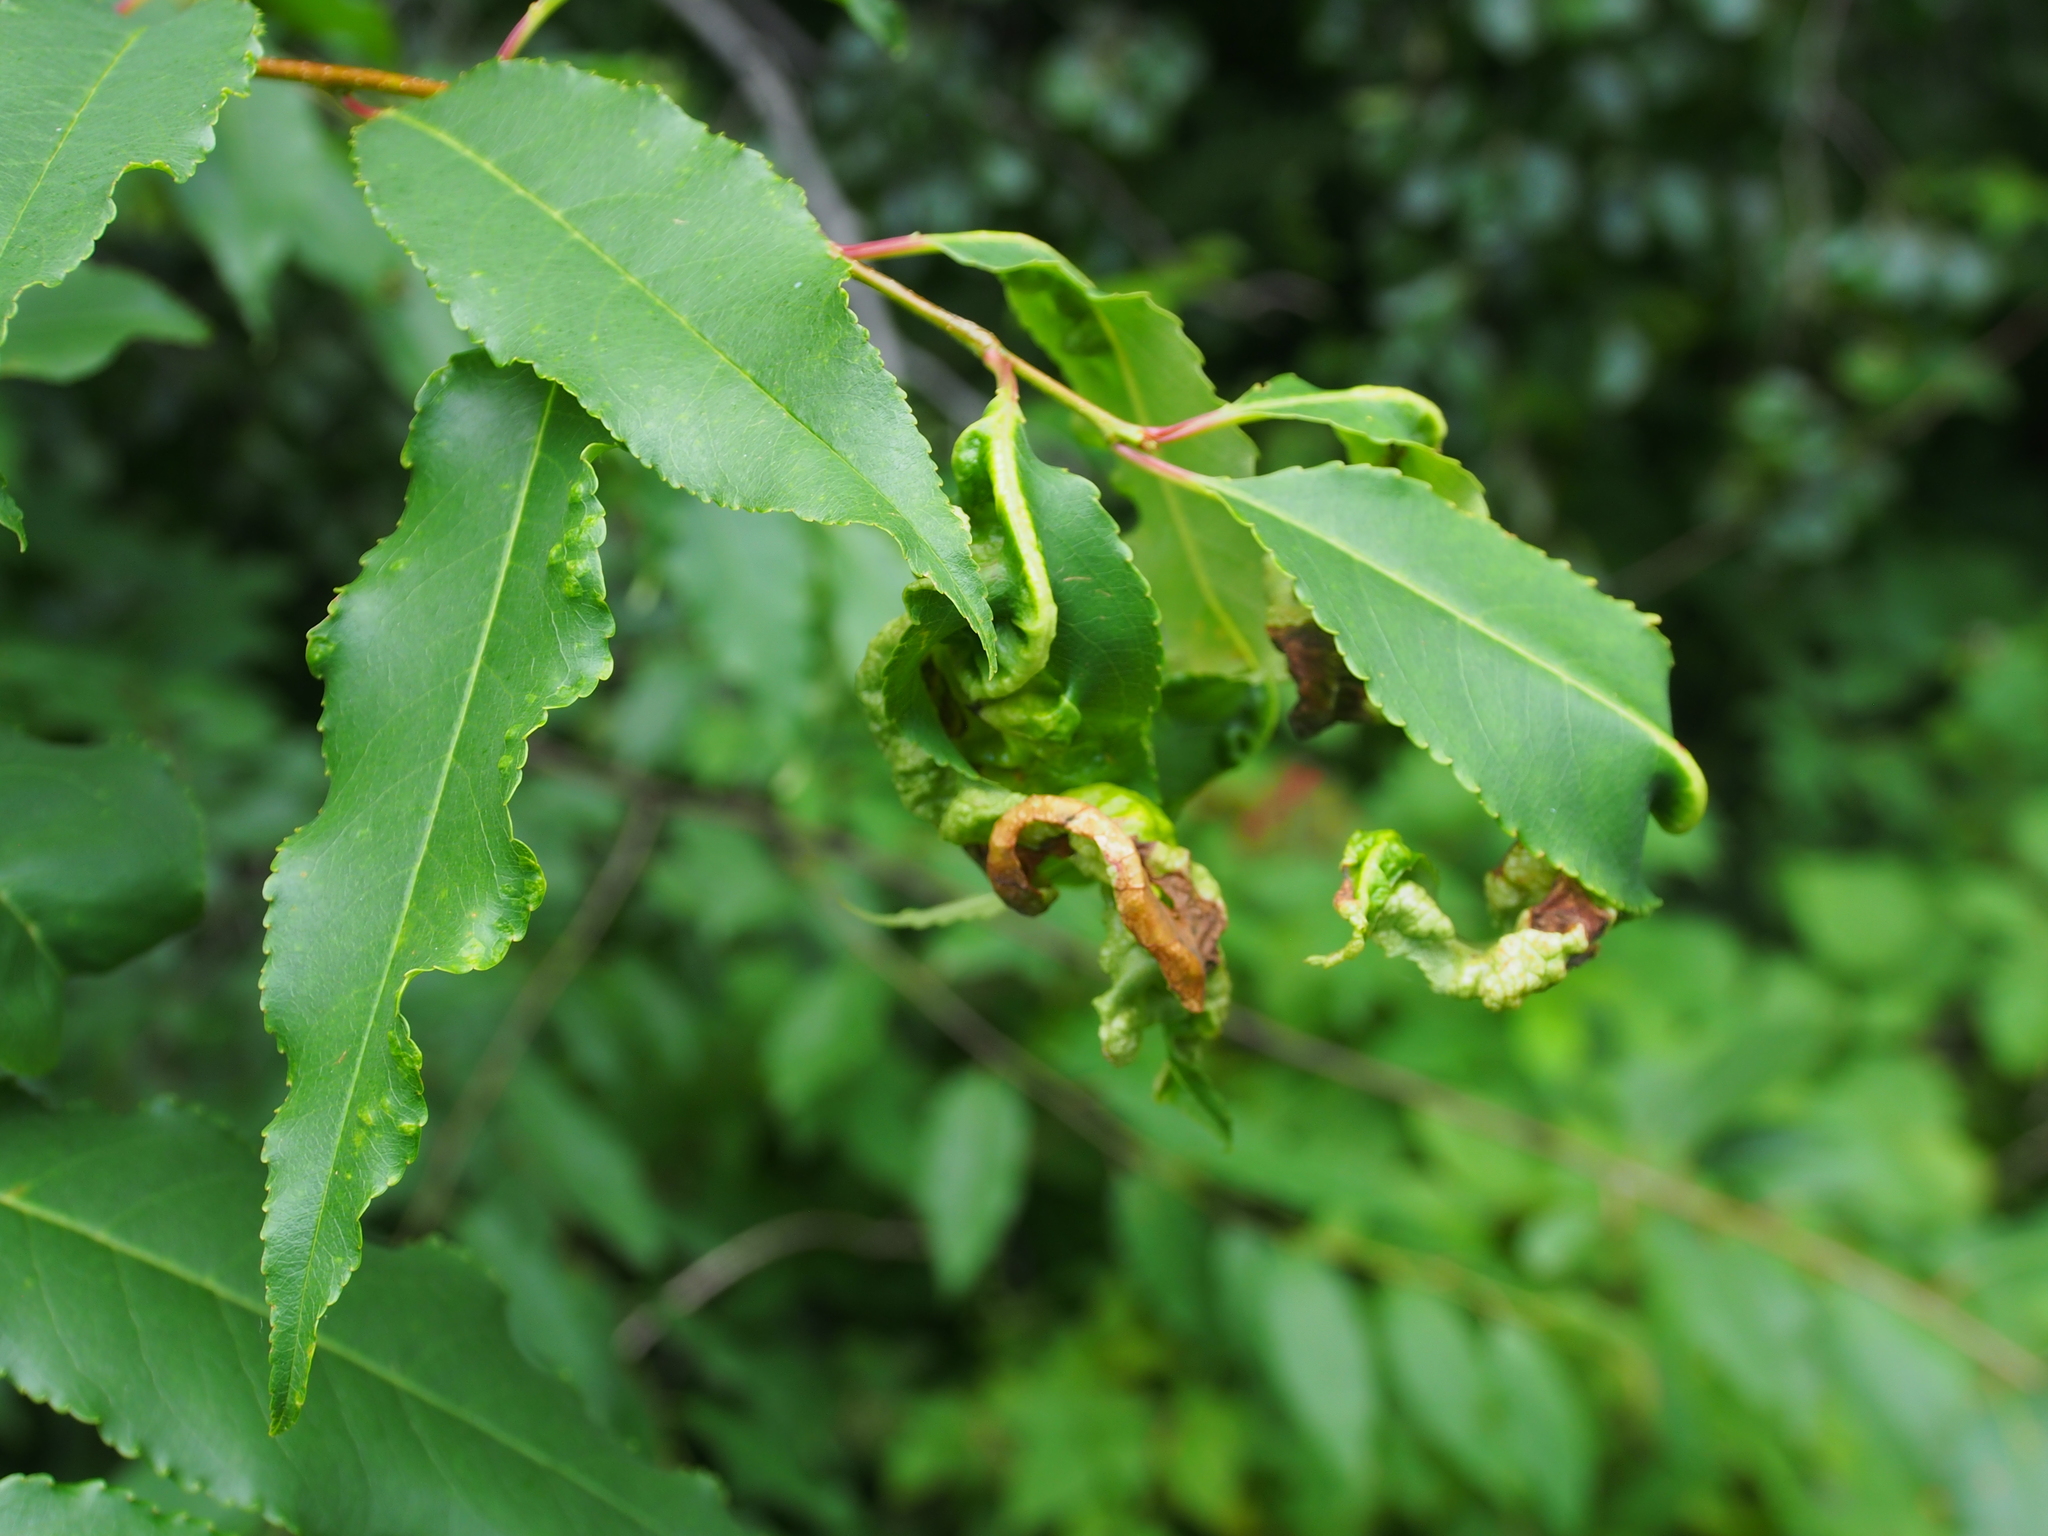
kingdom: Fungi
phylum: Ascomycota
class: Taphrinomycetes
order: Taphrinales
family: Taphrinaceae
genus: Taphrina
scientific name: Taphrina farlowii
